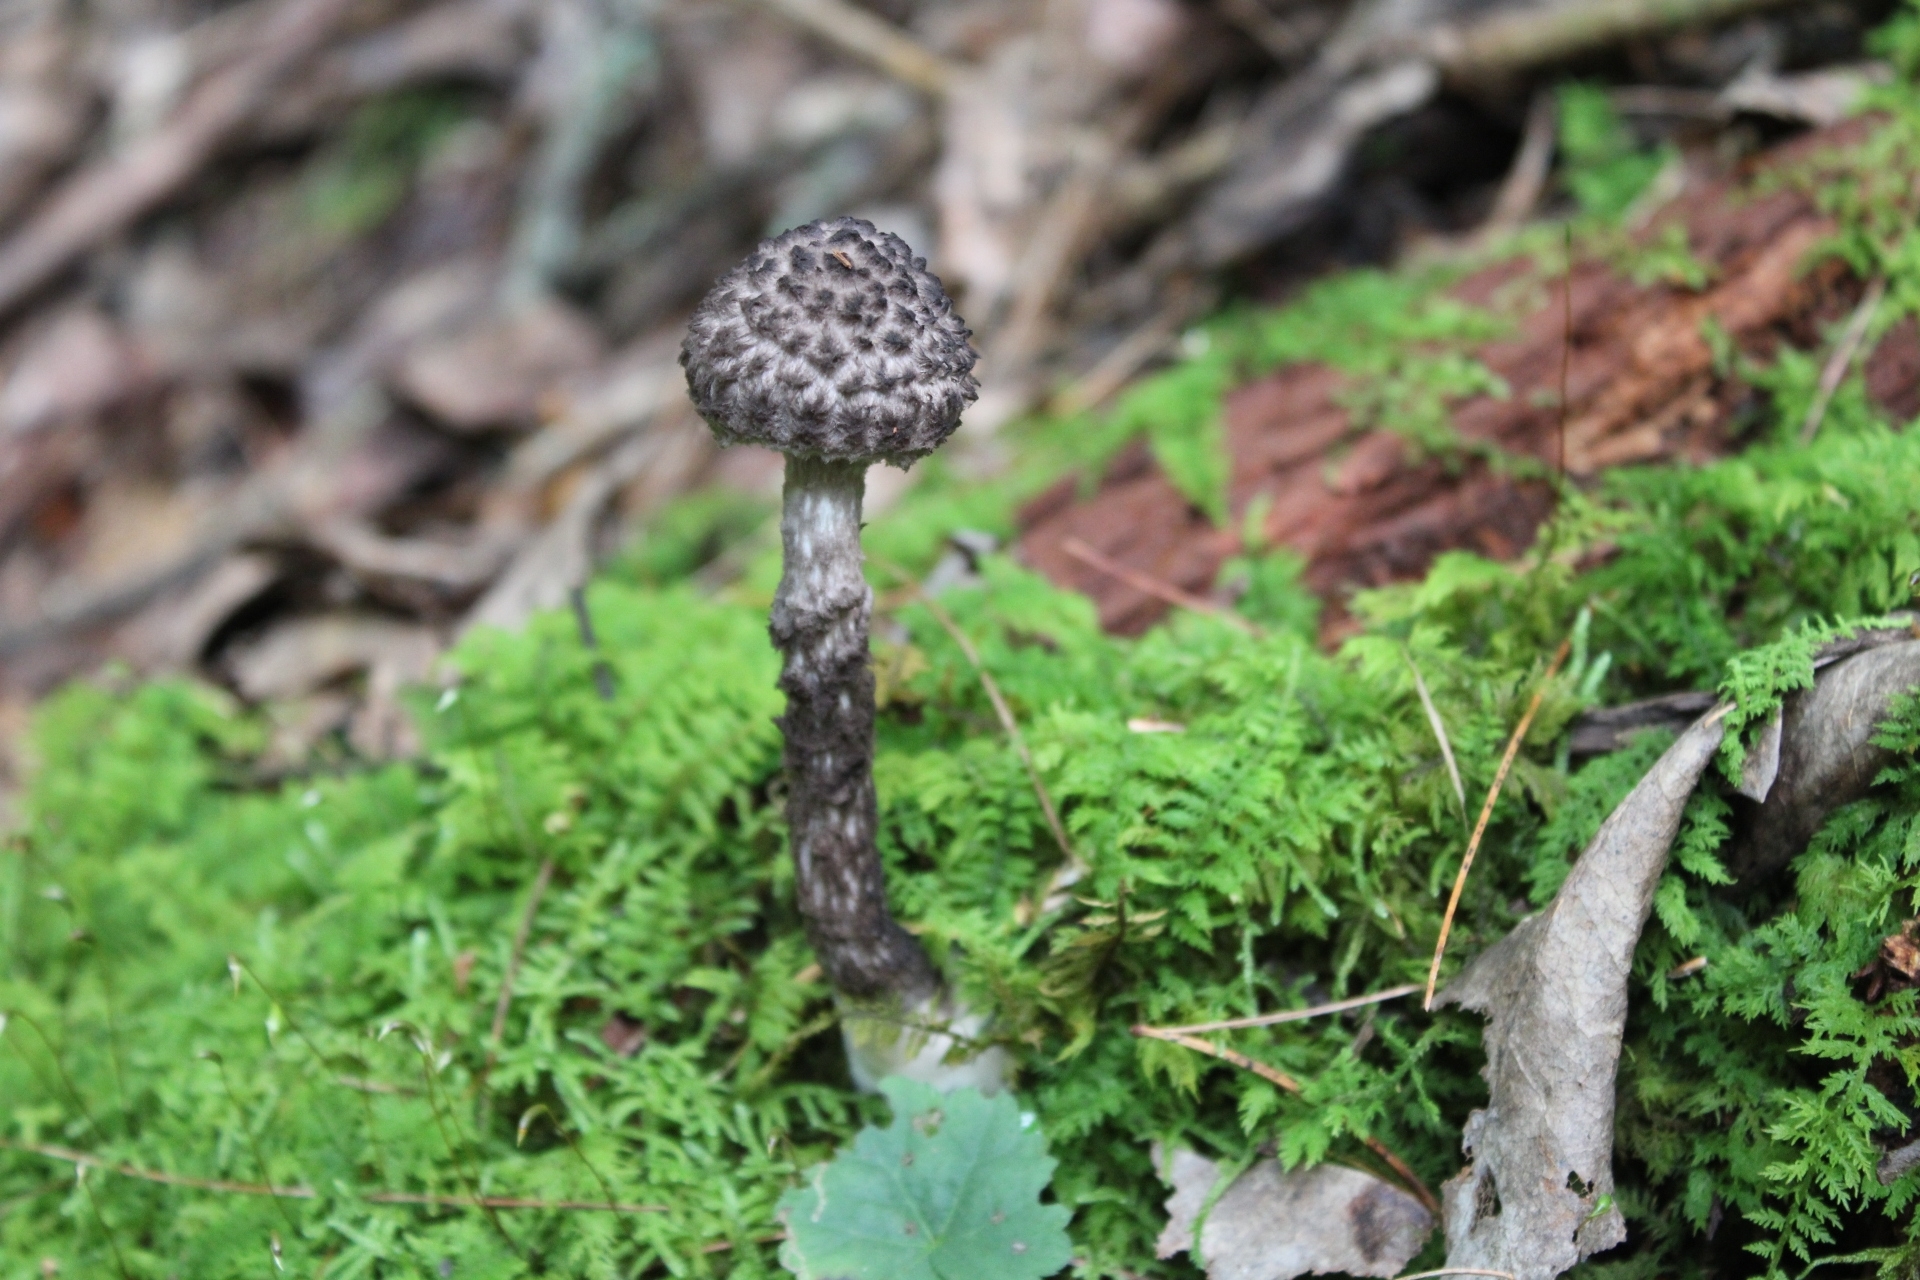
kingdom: Fungi
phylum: Basidiomycota
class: Agaricomycetes
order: Boletales
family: Boletaceae
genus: Strobilomyces
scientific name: Strobilomyces strobilaceus
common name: Old man of the woods
